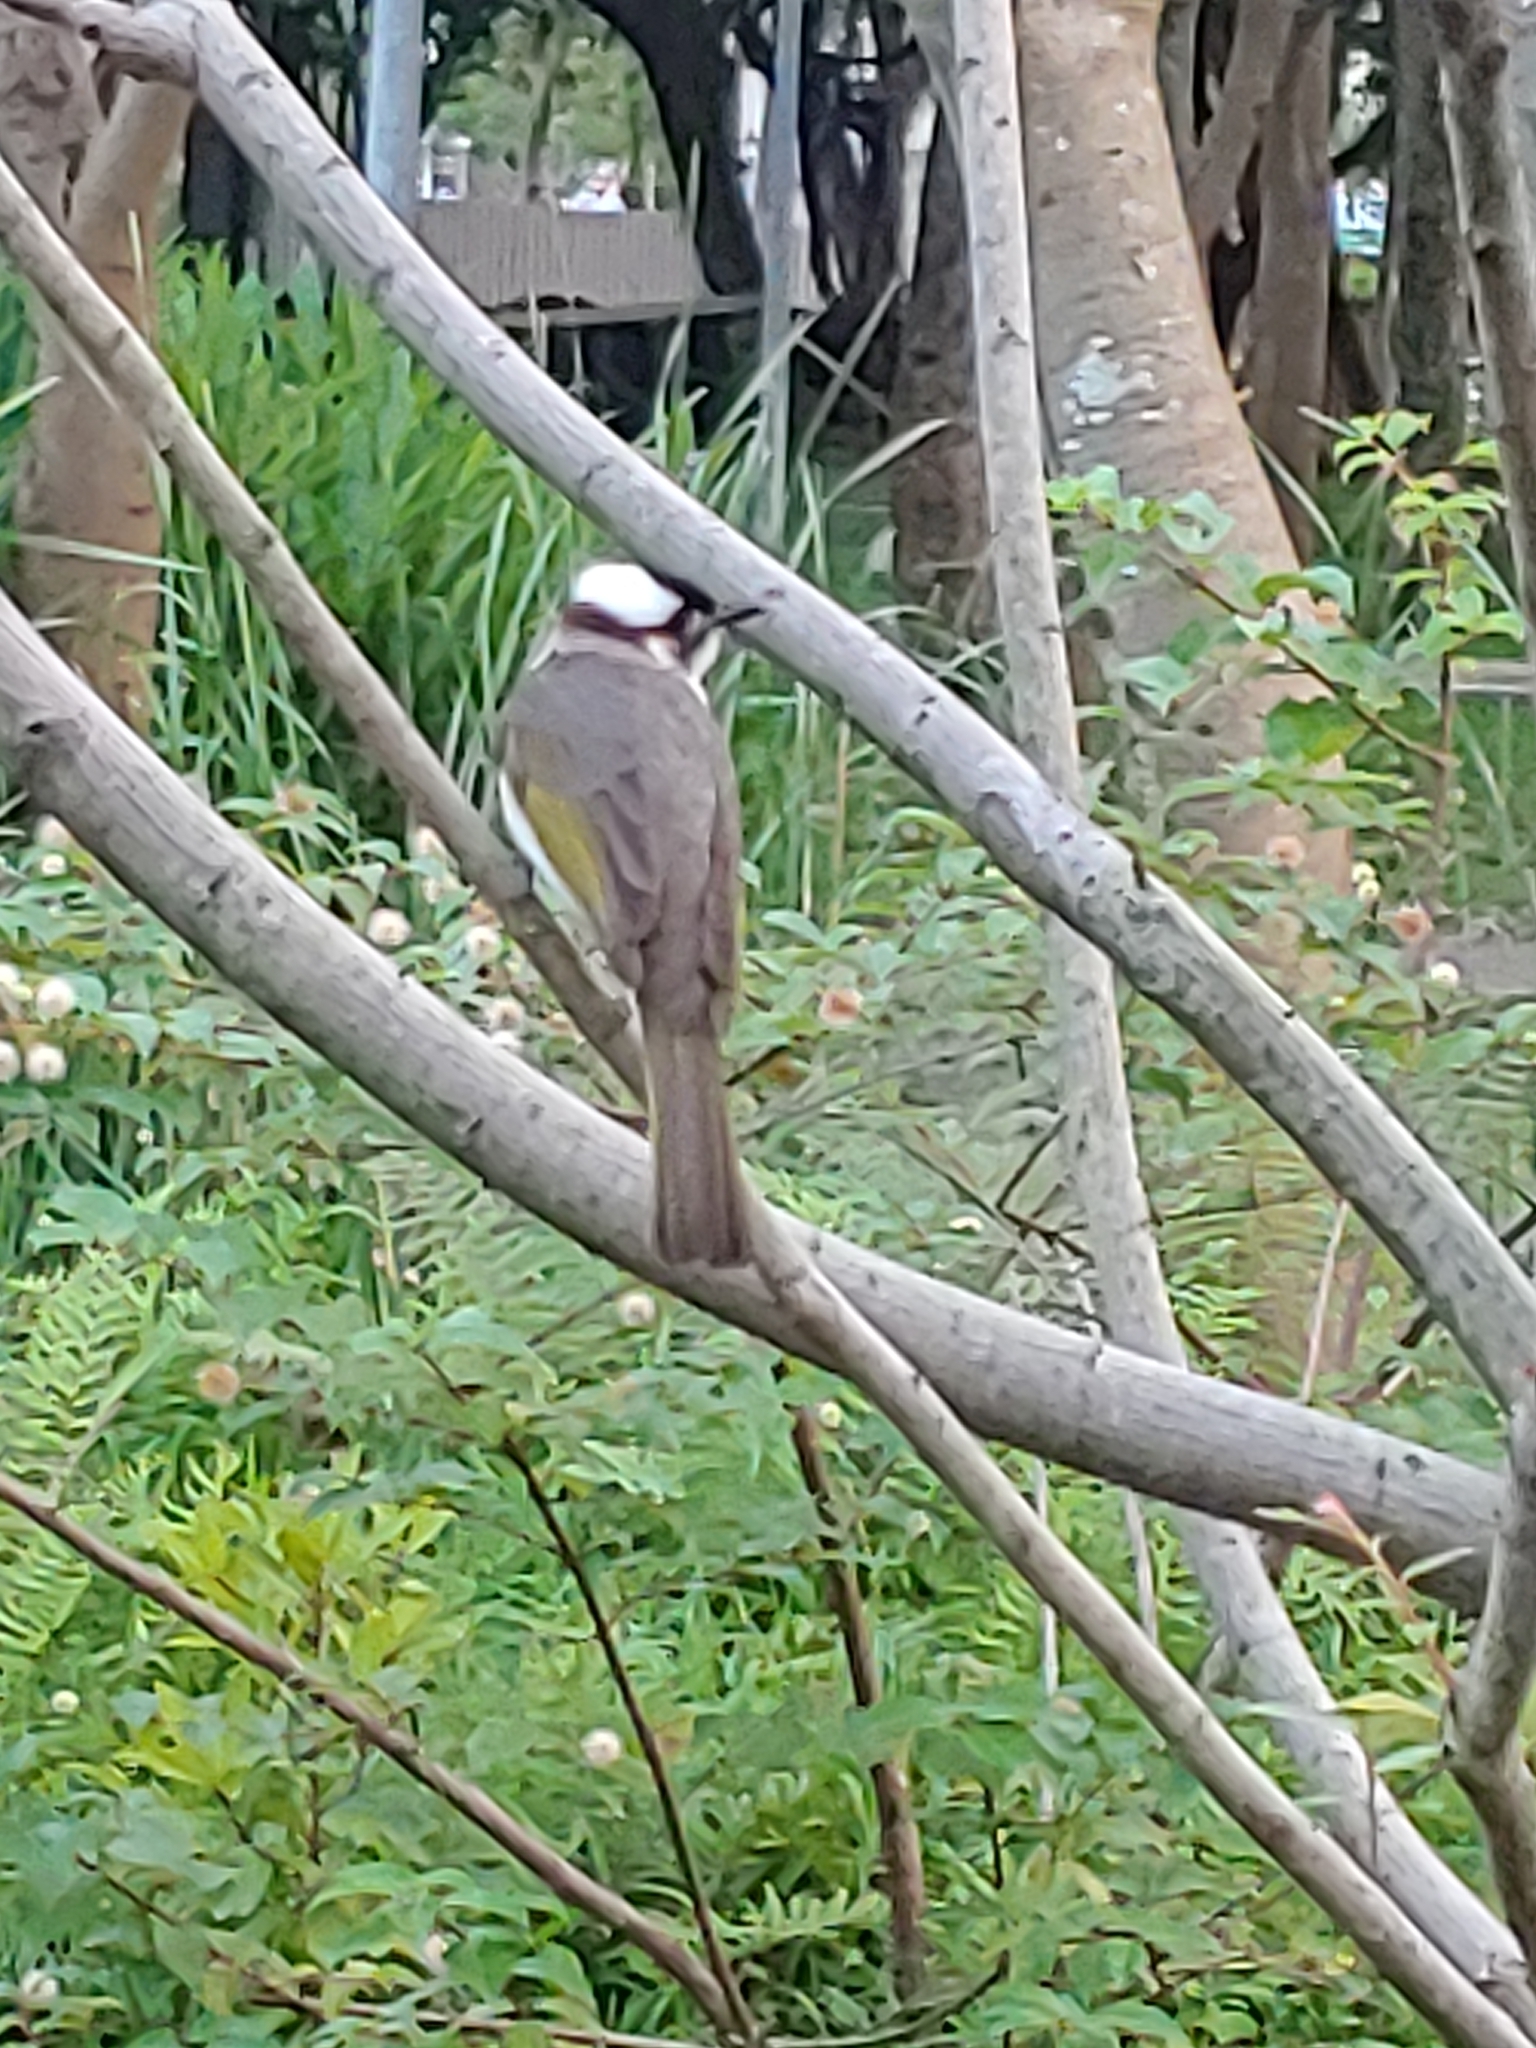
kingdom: Animalia
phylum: Chordata
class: Aves
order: Passeriformes
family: Pycnonotidae
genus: Pycnonotus
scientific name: Pycnonotus sinensis
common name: Light-vented bulbul
